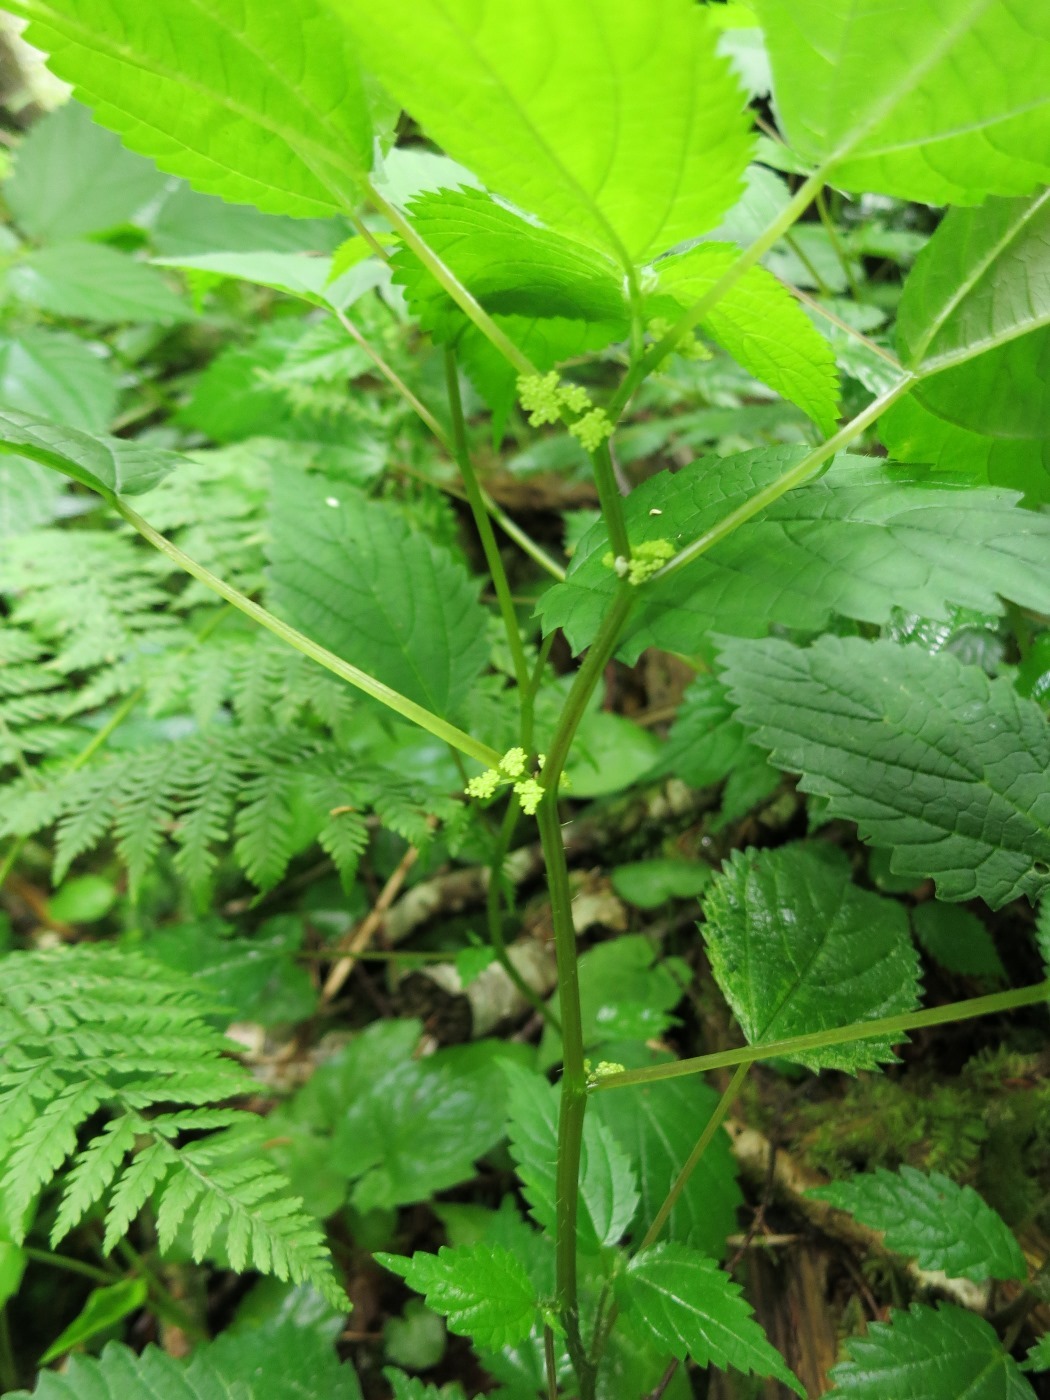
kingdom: Plantae
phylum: Tracheophyta
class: Magnoliopsida
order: Rosales
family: Urticaceae
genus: Laportea
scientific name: Laportea canadensis
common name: Canada nettle
